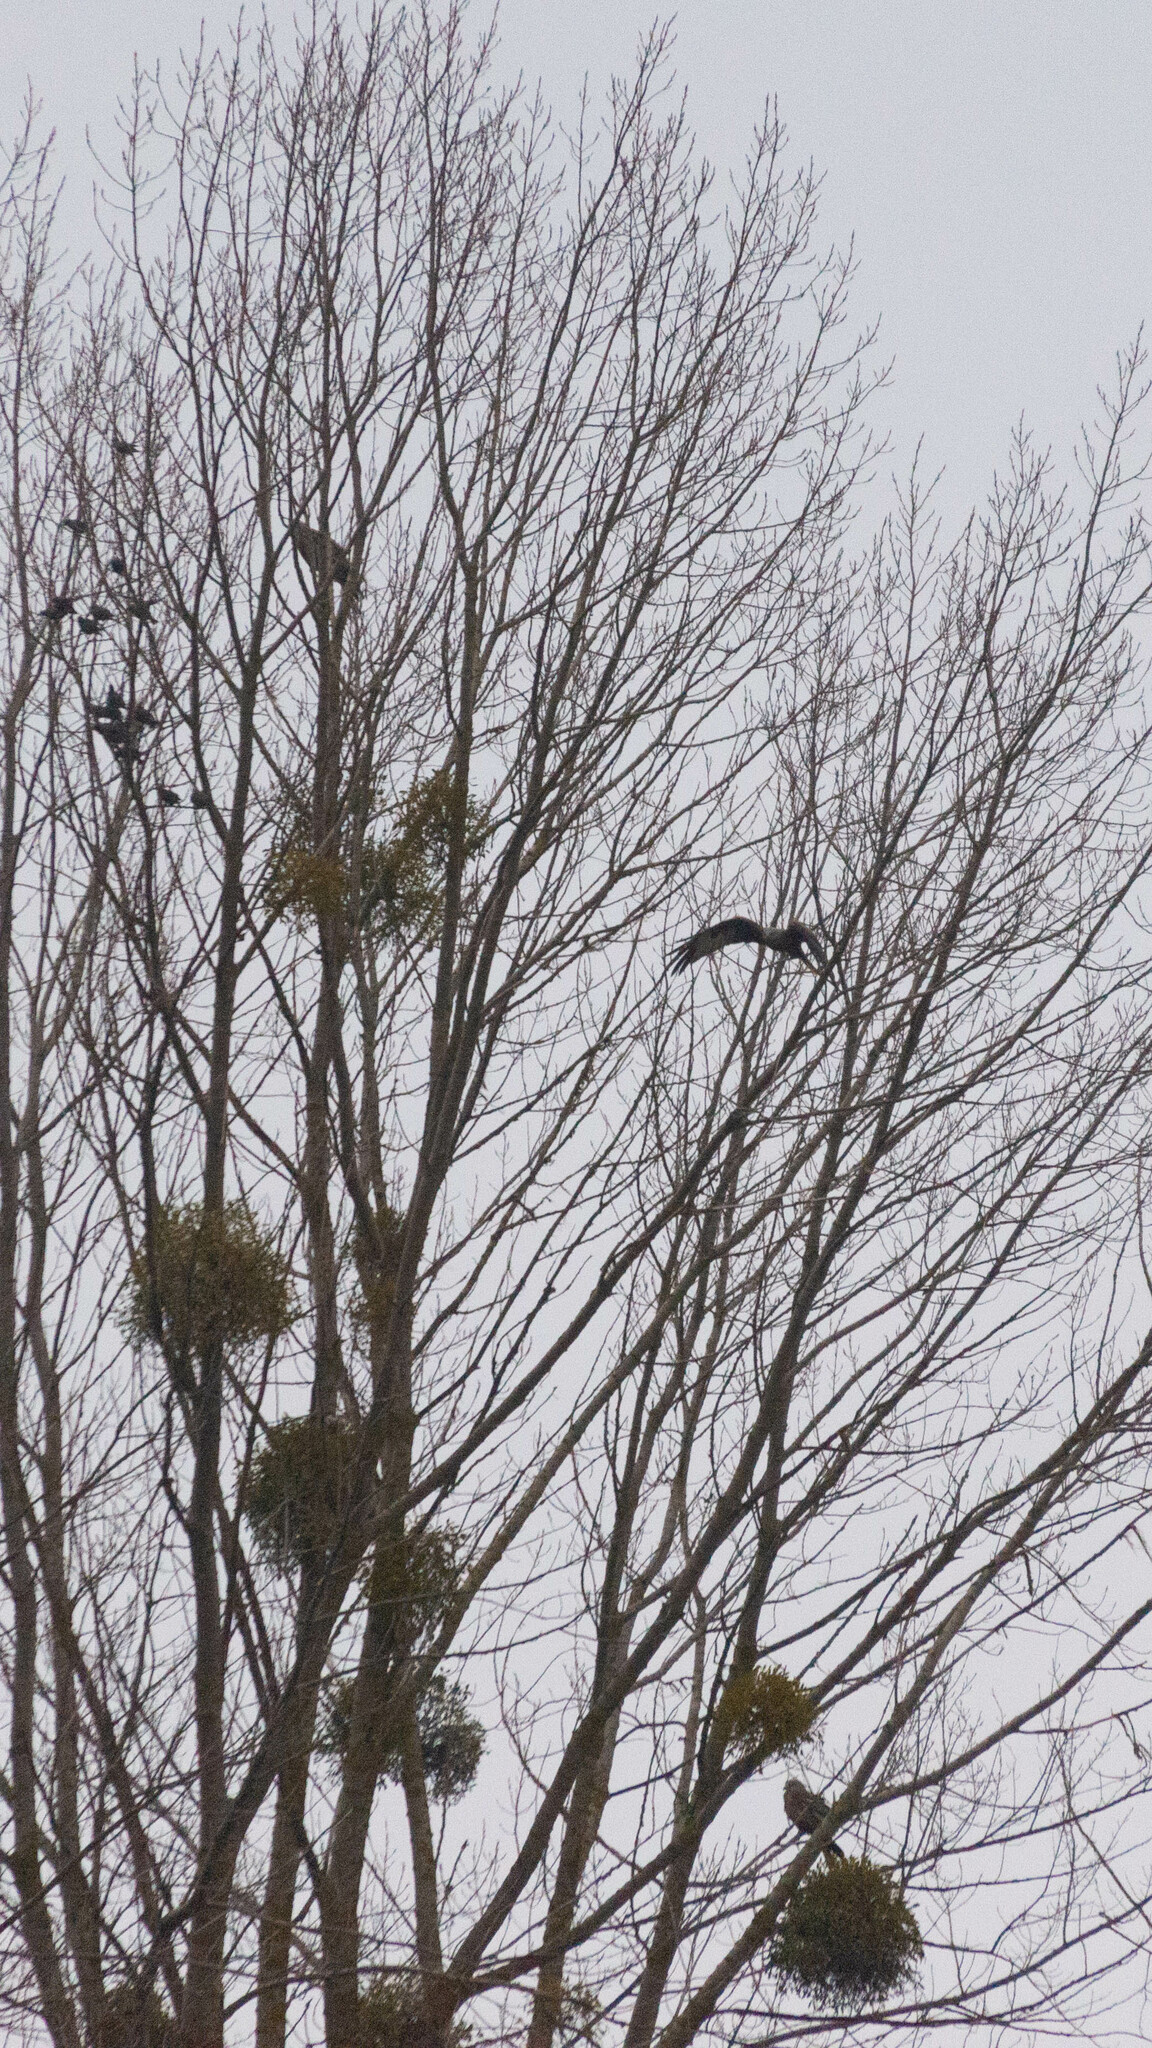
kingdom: Animalia
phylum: Chordata
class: Aves
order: Accipitriformes
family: Accipitridae
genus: Milvus
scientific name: Milvus milvus
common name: Red kite
